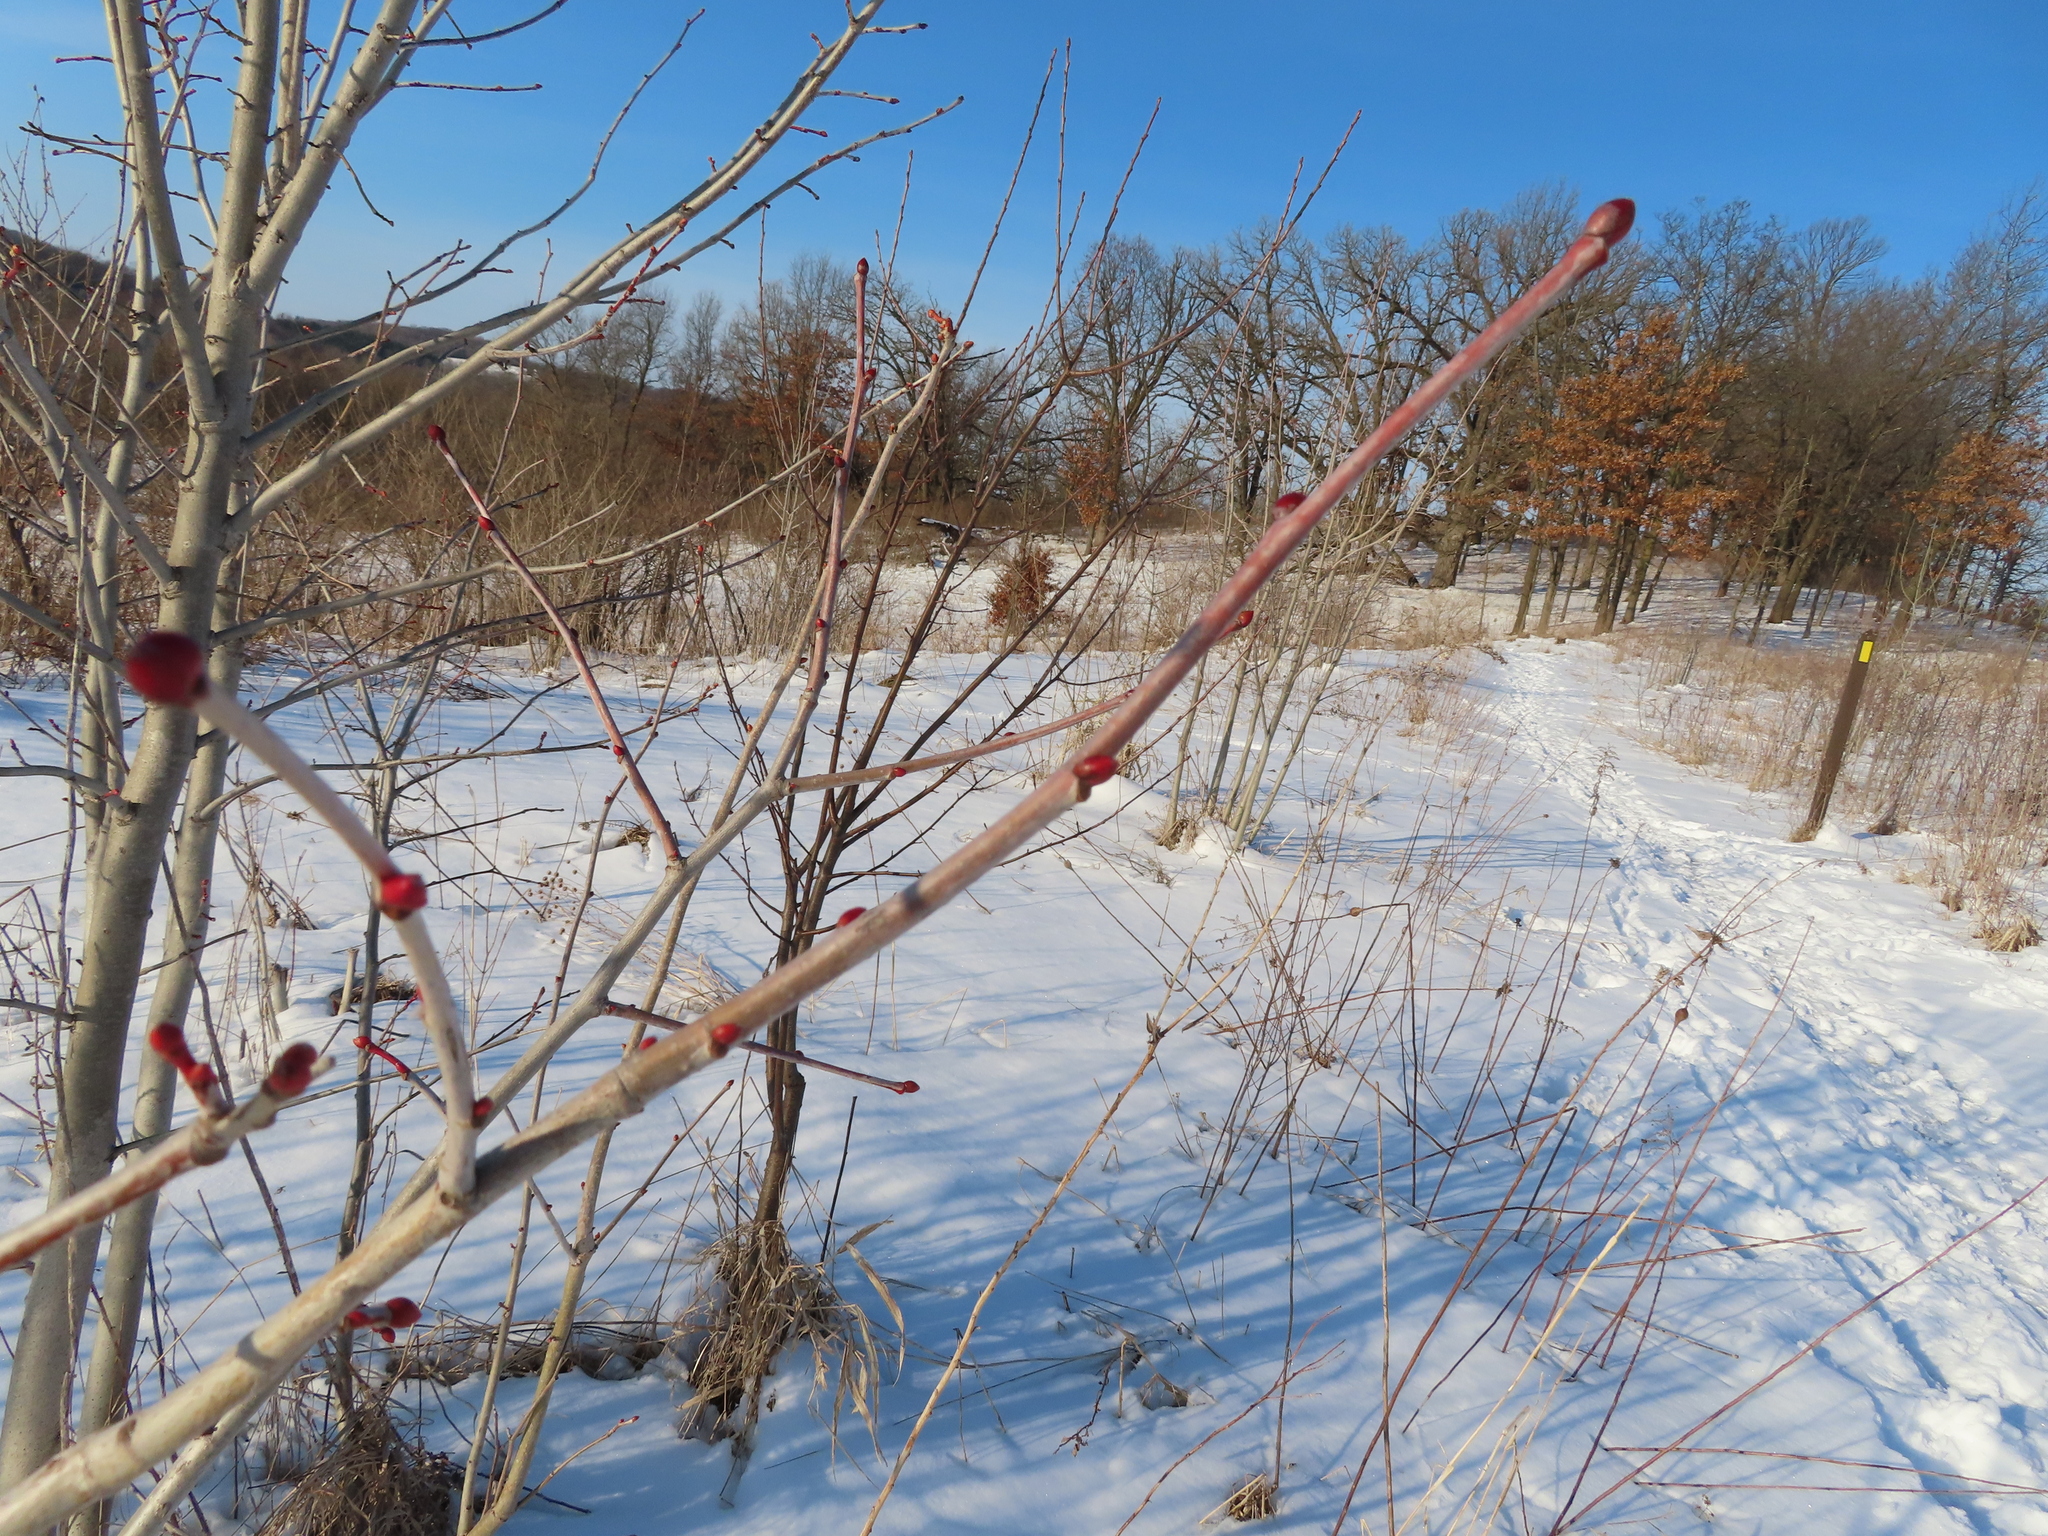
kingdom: Plantae
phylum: Tracheophyta
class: Magnoliopsida
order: Malvales
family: Malvaceae
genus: Tilia
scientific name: Tilia americana
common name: Basswood
